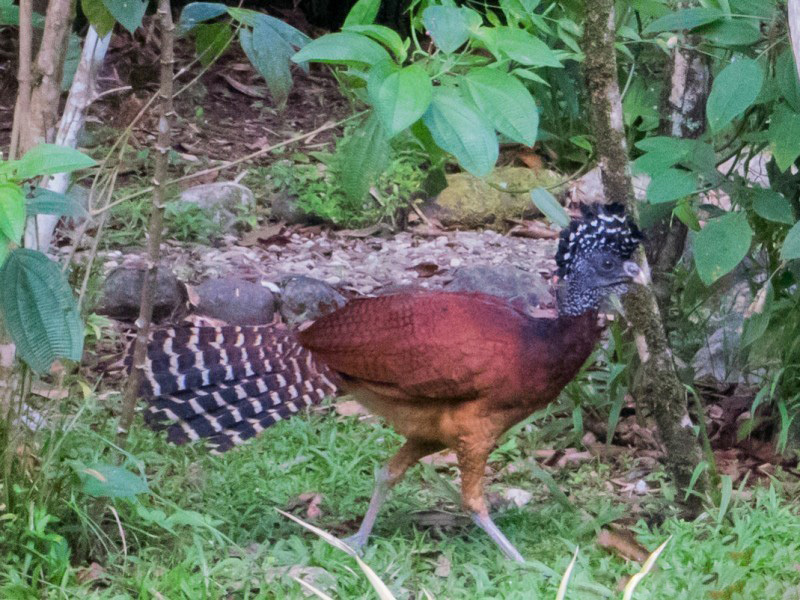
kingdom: Animalia
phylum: Chordata
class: Aves
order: Galliformes
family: Cracidae
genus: Crax
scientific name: Crax rubra
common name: Great curassow
